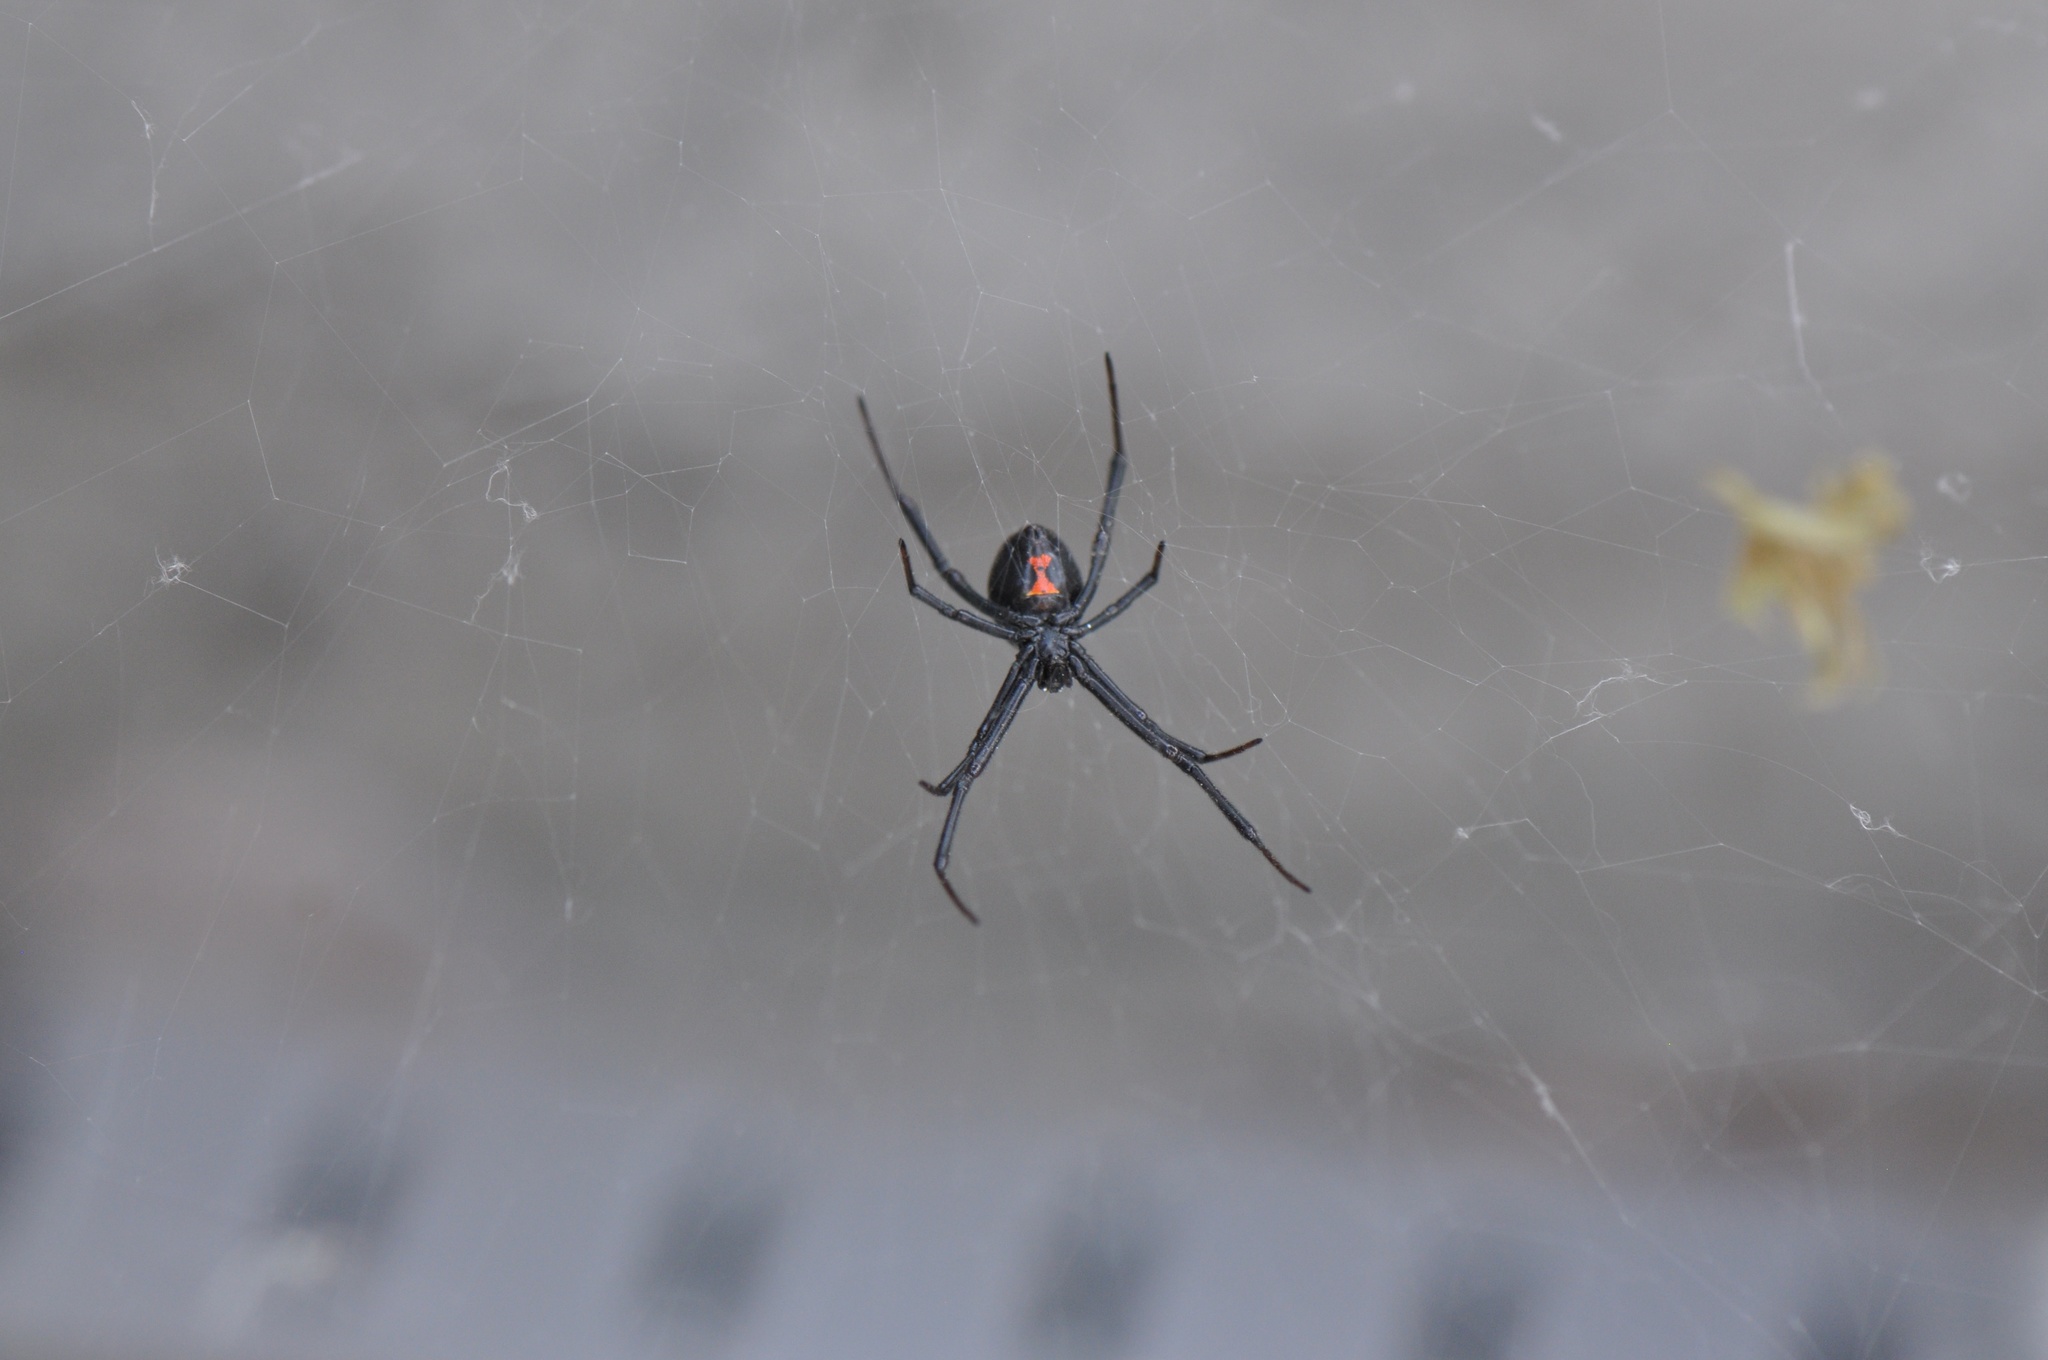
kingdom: Animalia
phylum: Arthropoda
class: Arachnida
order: Araneae
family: Theridiidae
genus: Latrodectus
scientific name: Latrodectus hesperus
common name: Western black widow
